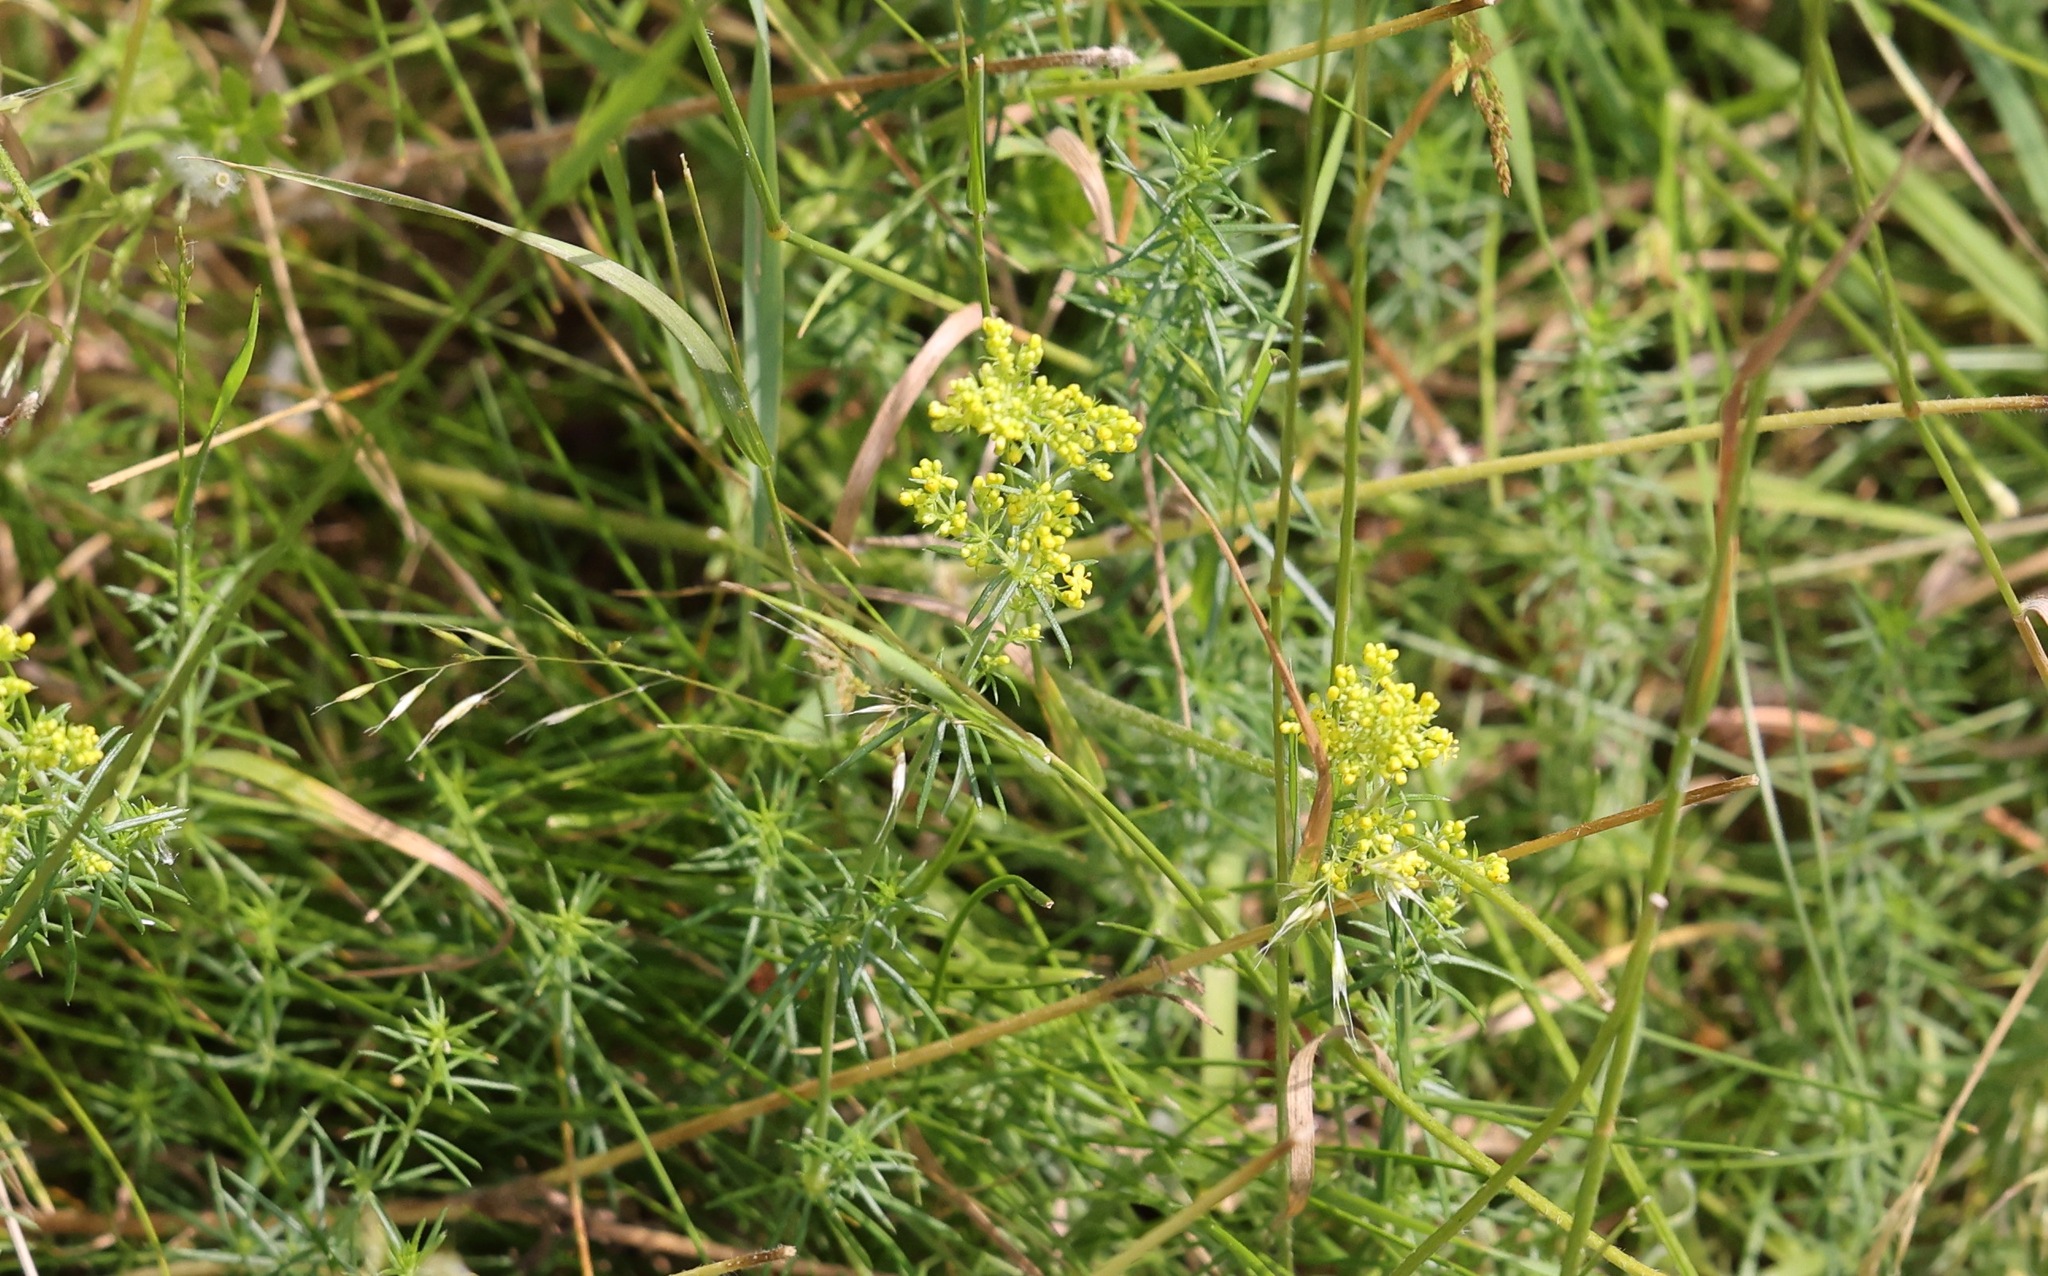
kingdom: Plantae
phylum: Tracheophyta
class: Magnoliopsida
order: Gentianales
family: Rubiaceae
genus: Galium
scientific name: Galium verum
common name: Lady's bedstraw
